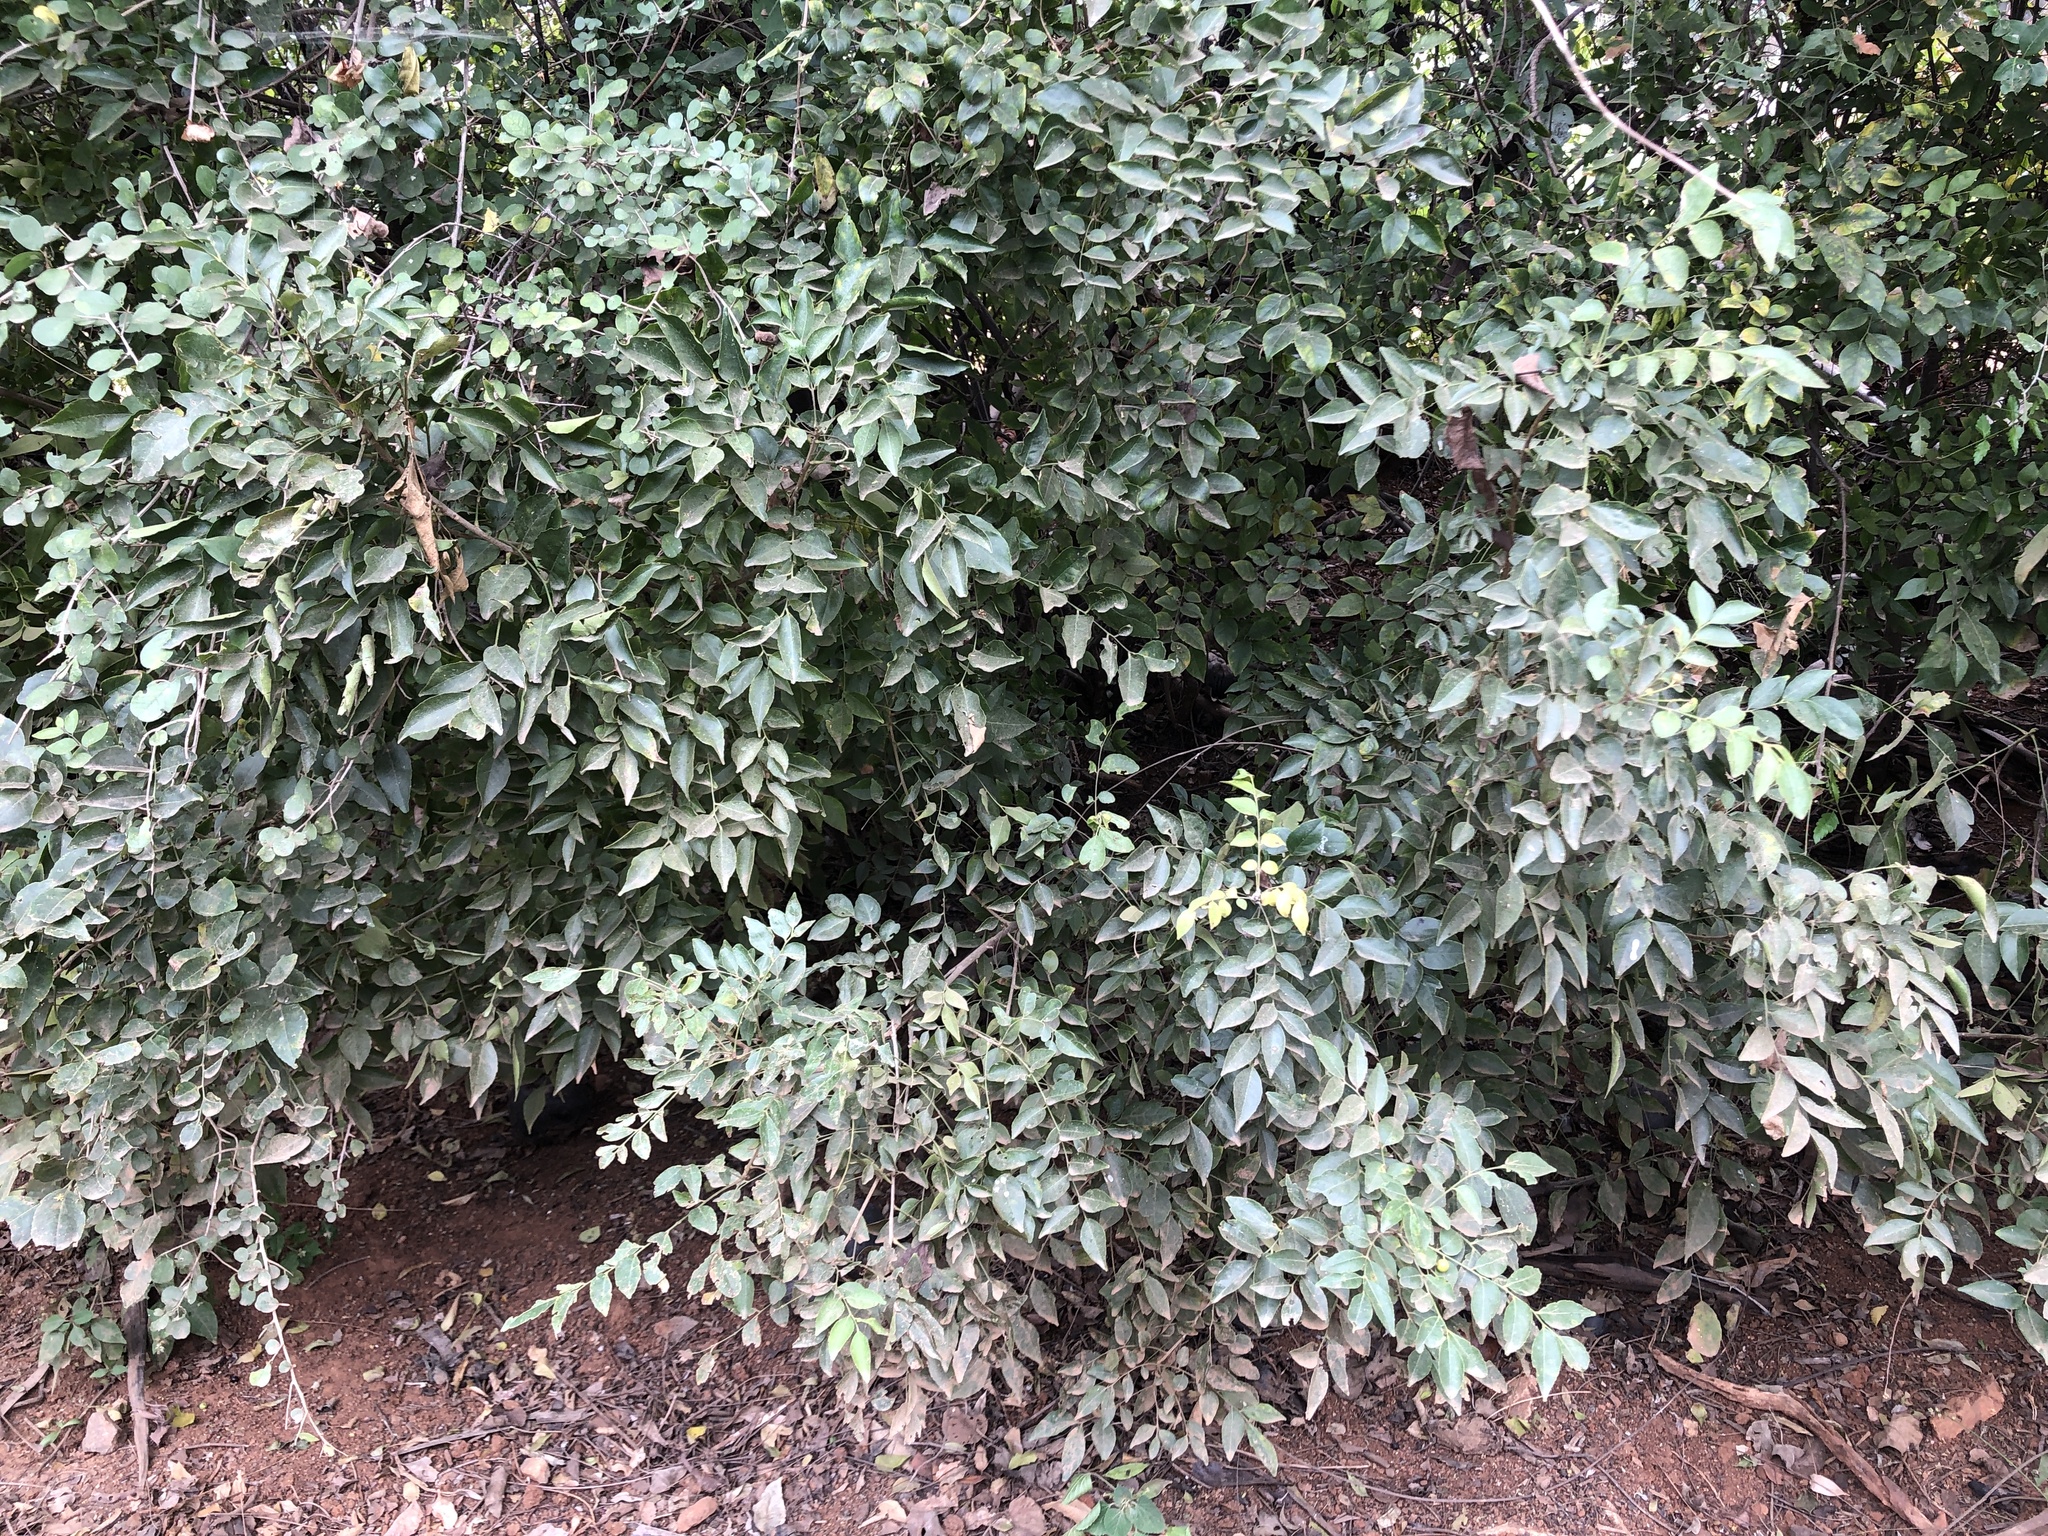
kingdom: Plantae
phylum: Tracheophyta
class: Magnoliopsida
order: Sapindales
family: Rutaceae
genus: Clausena
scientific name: Clausena anisata
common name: Horsewood
